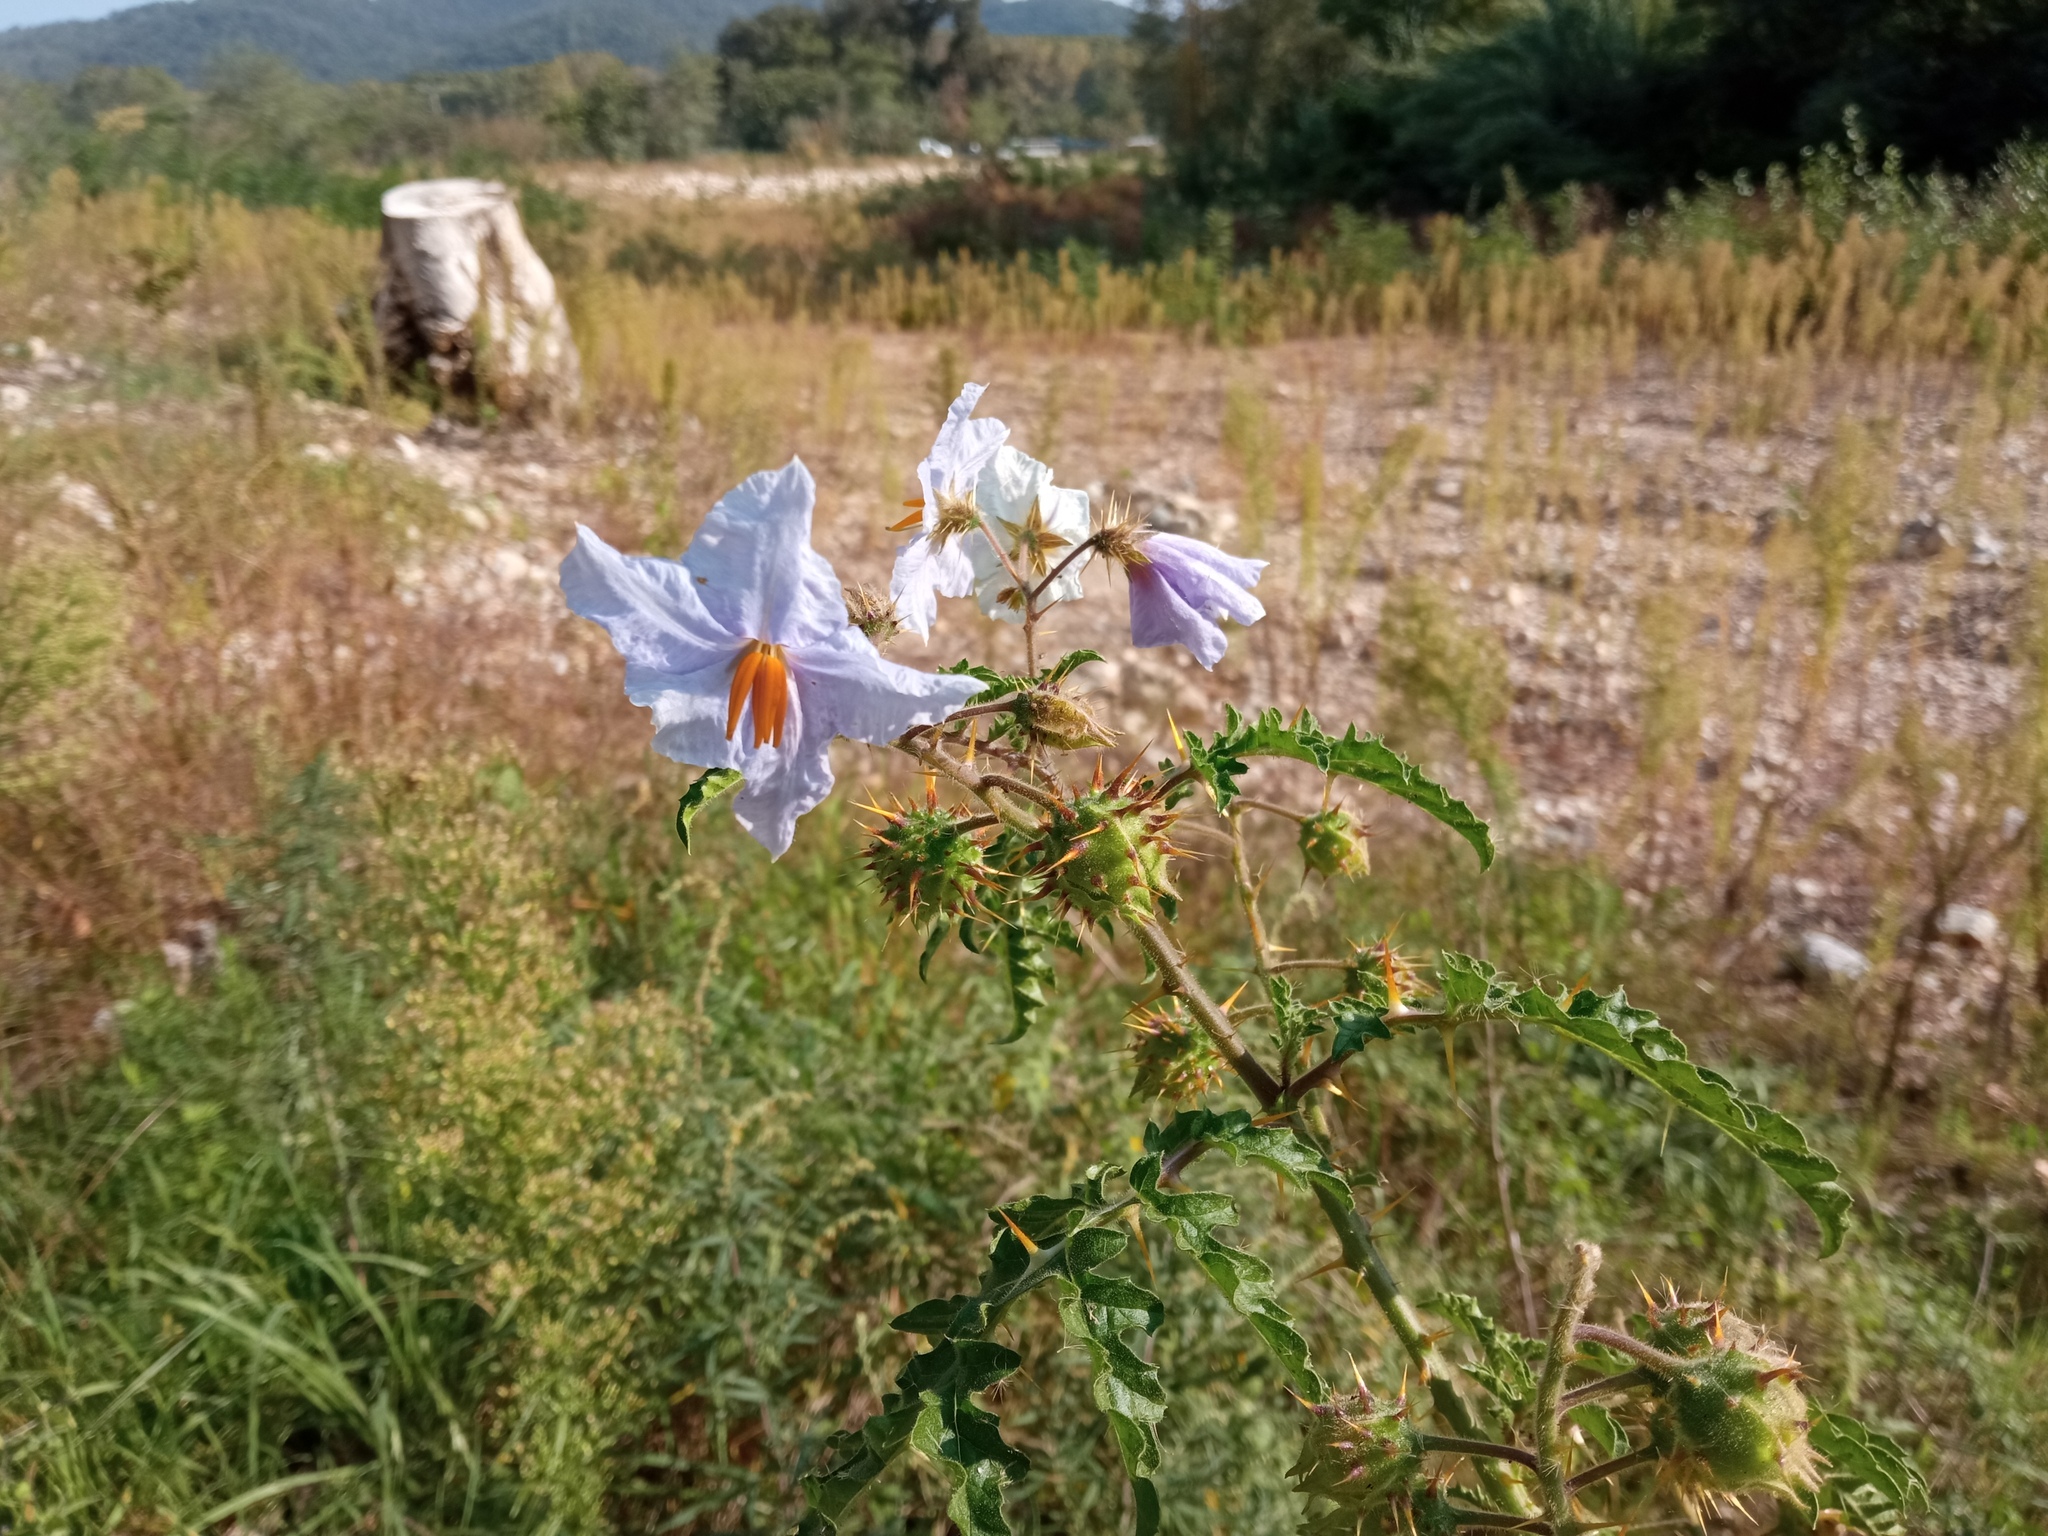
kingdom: Plantae
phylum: Tracheophyta
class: Magnoliopsida
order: Solanales
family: Solanaceae
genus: Solanum
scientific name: Solanum sisymbriifolium
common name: Red buffalo-bur
